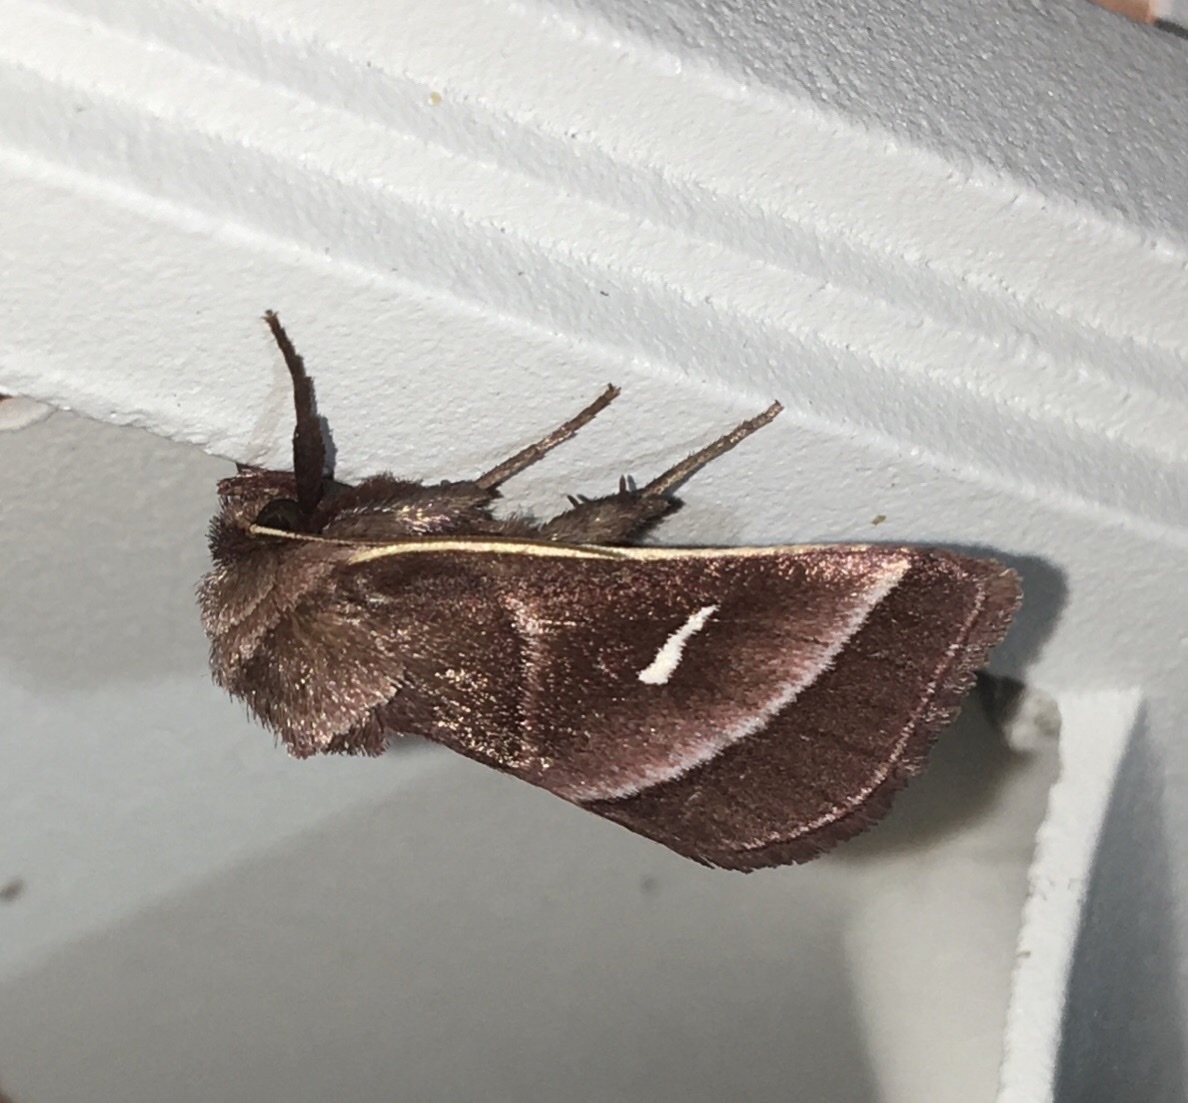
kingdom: Animalia
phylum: Arthropoda
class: Insecta
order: Lepidoptera
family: Noctuidae
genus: Fagitana
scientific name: Fagitana littera
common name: Marsh fern moth
